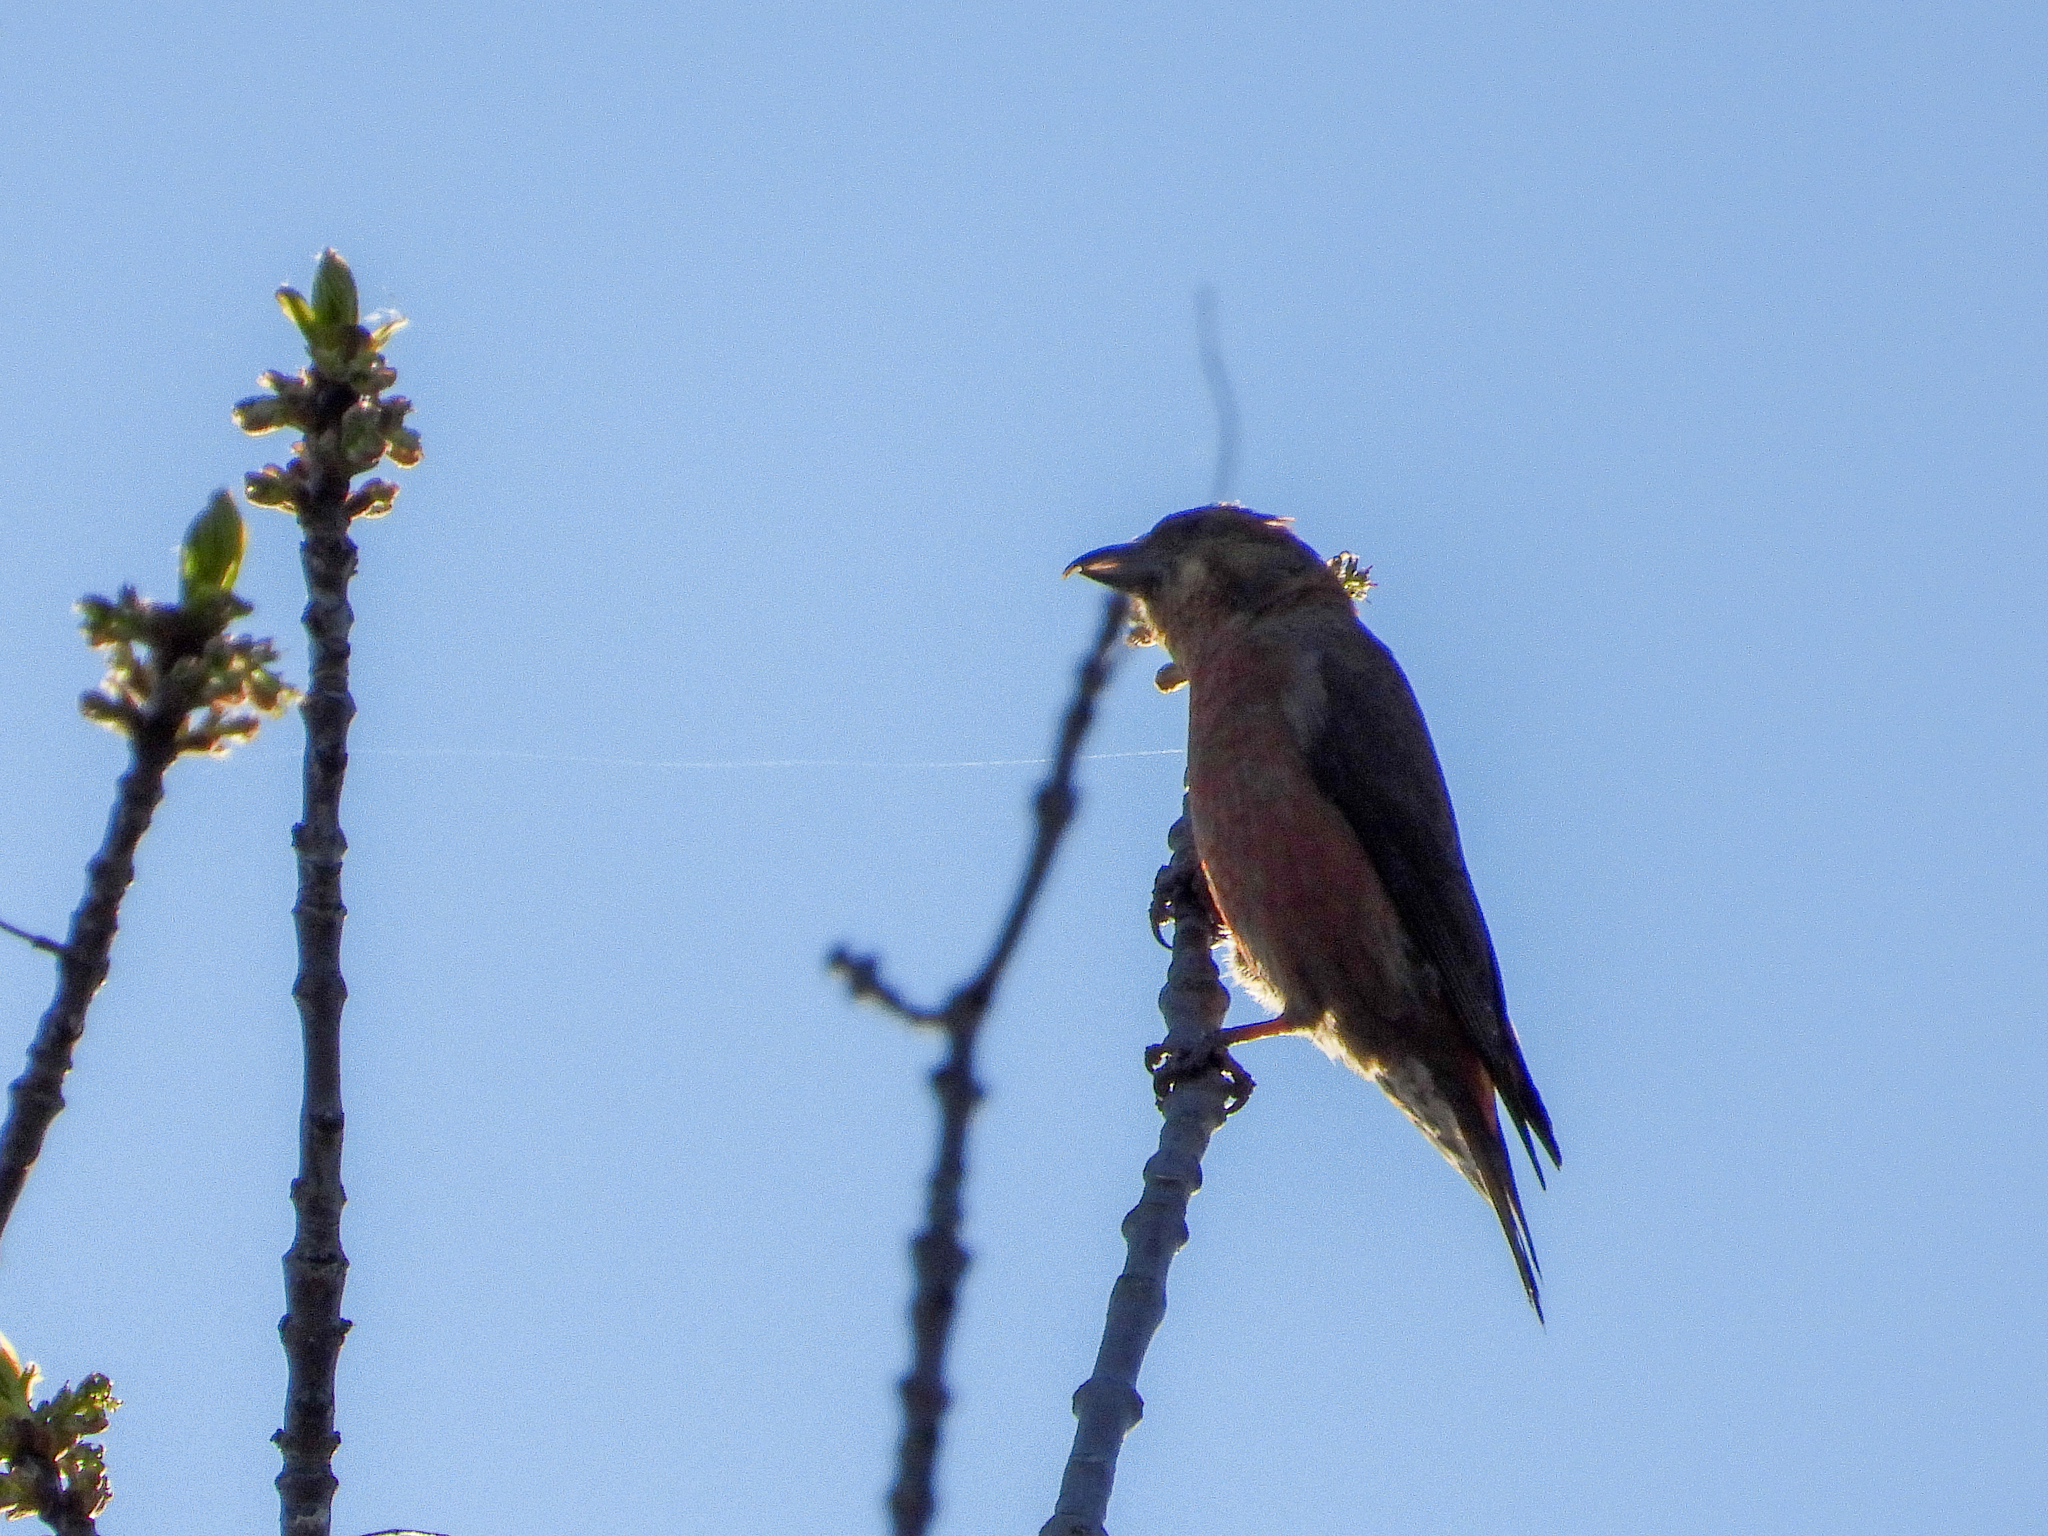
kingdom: Animalia
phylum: Chordata
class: Aves
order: Passeriformes
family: Fringillidae
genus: Loxia
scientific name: Loxia curvirostra
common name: Red crossbill
